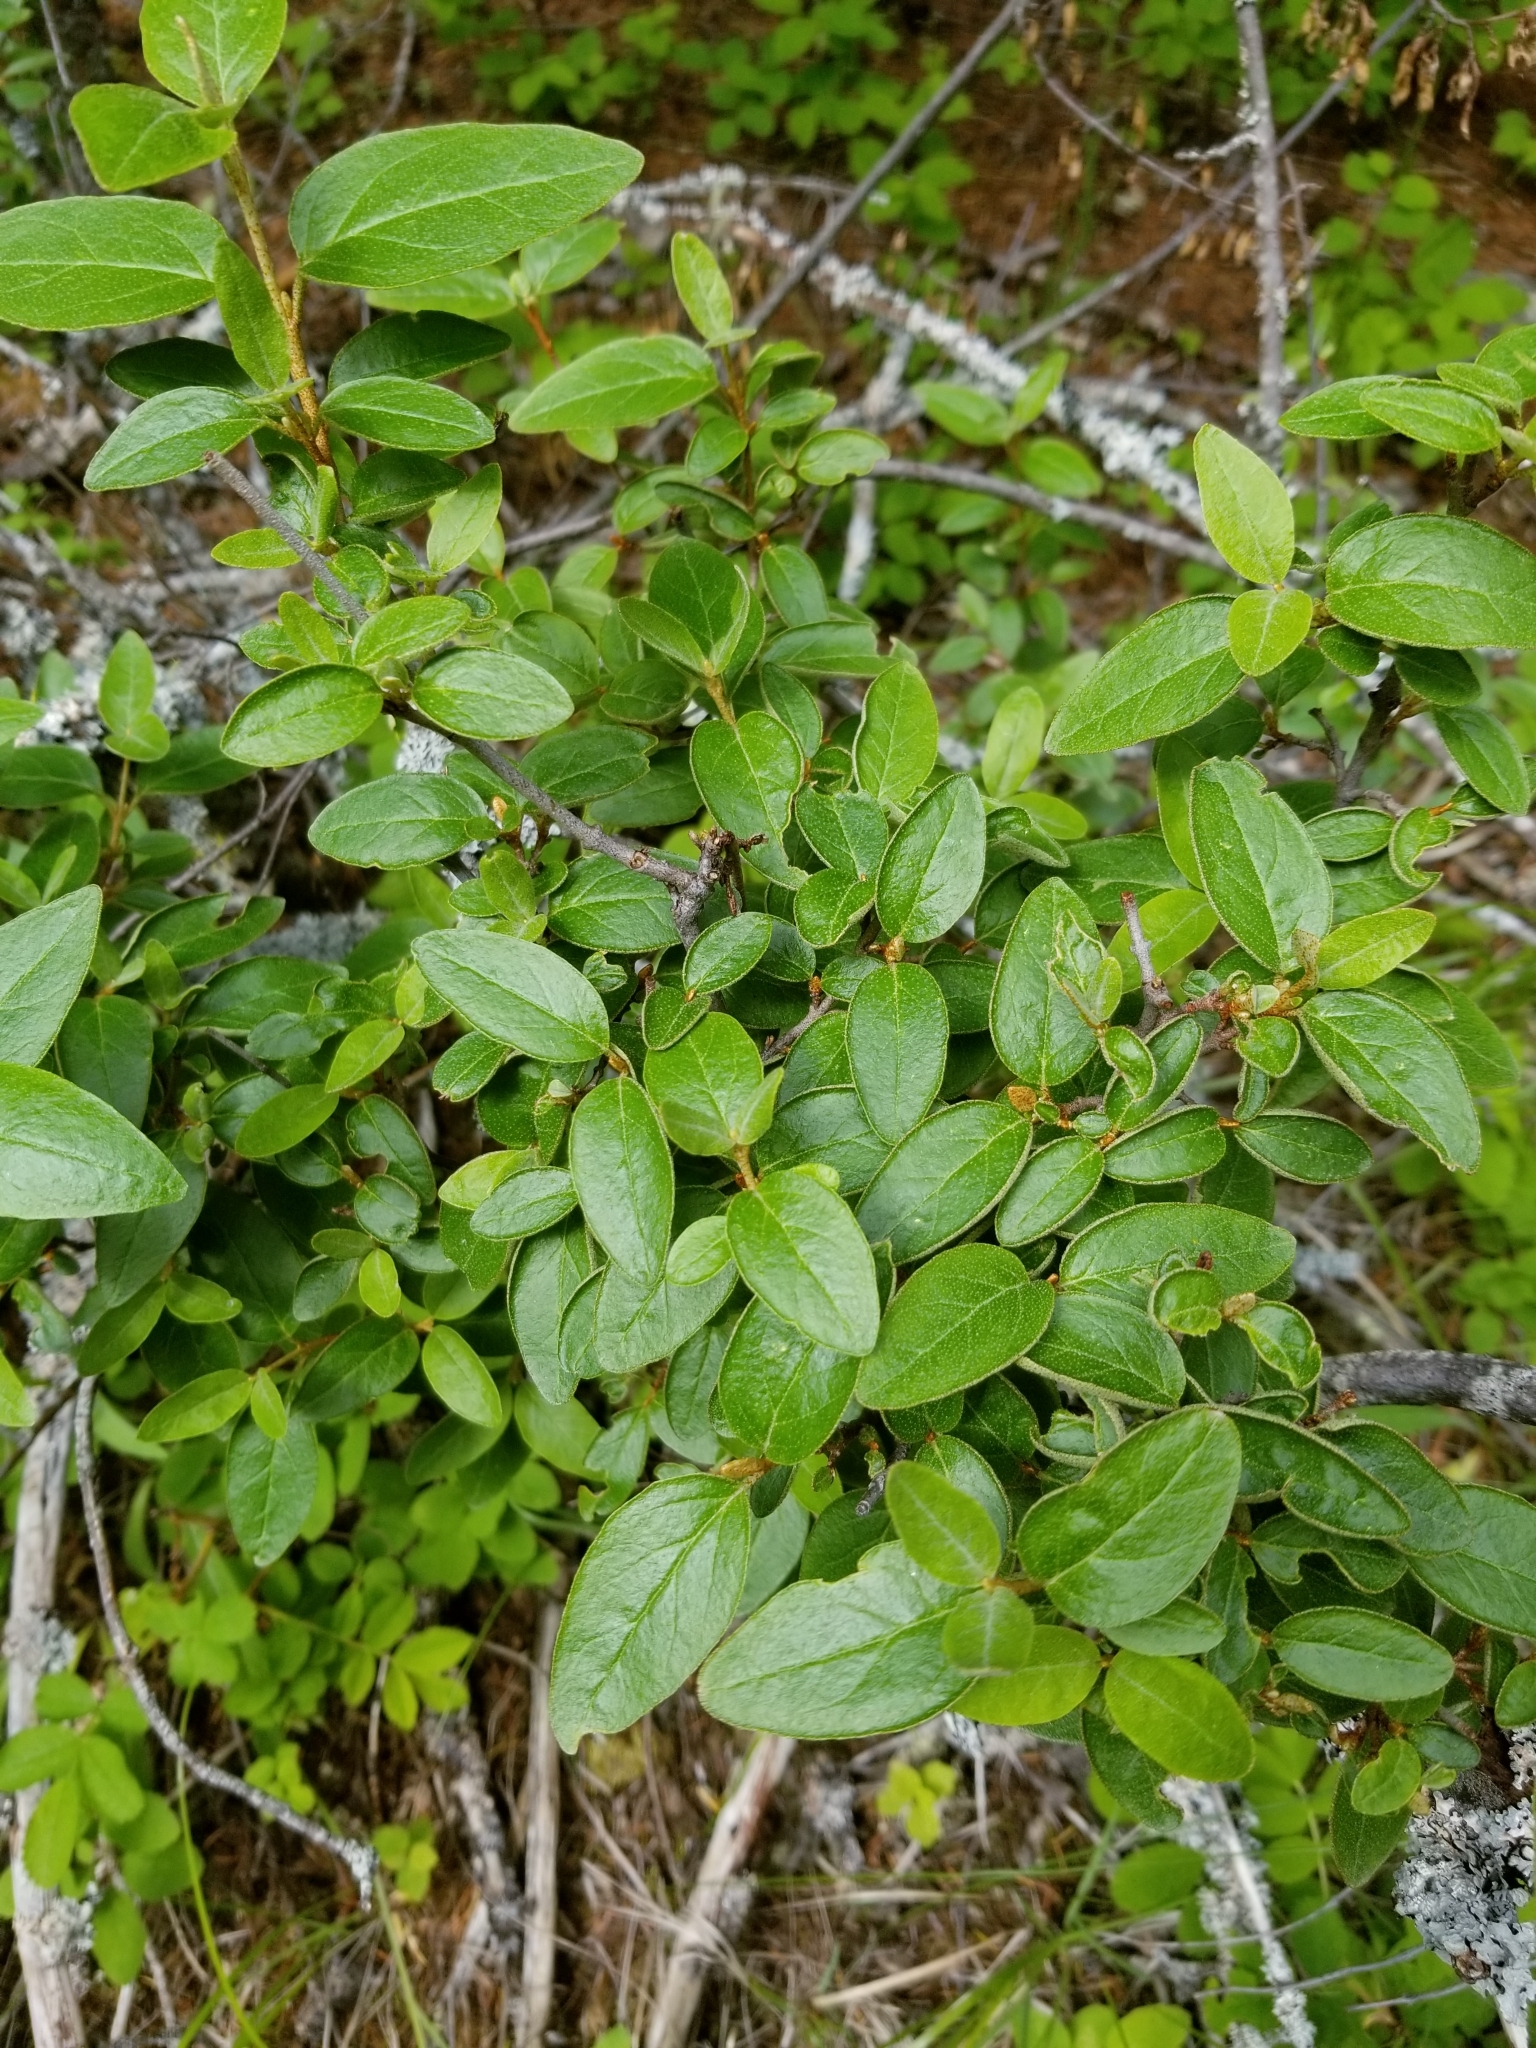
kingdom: Plantae
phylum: Tracheophyta
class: Magnoliopsida
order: Rosales
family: Elaeagnaceae
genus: Shepherdia
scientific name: Shepherdia canadensis
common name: Soapberry
